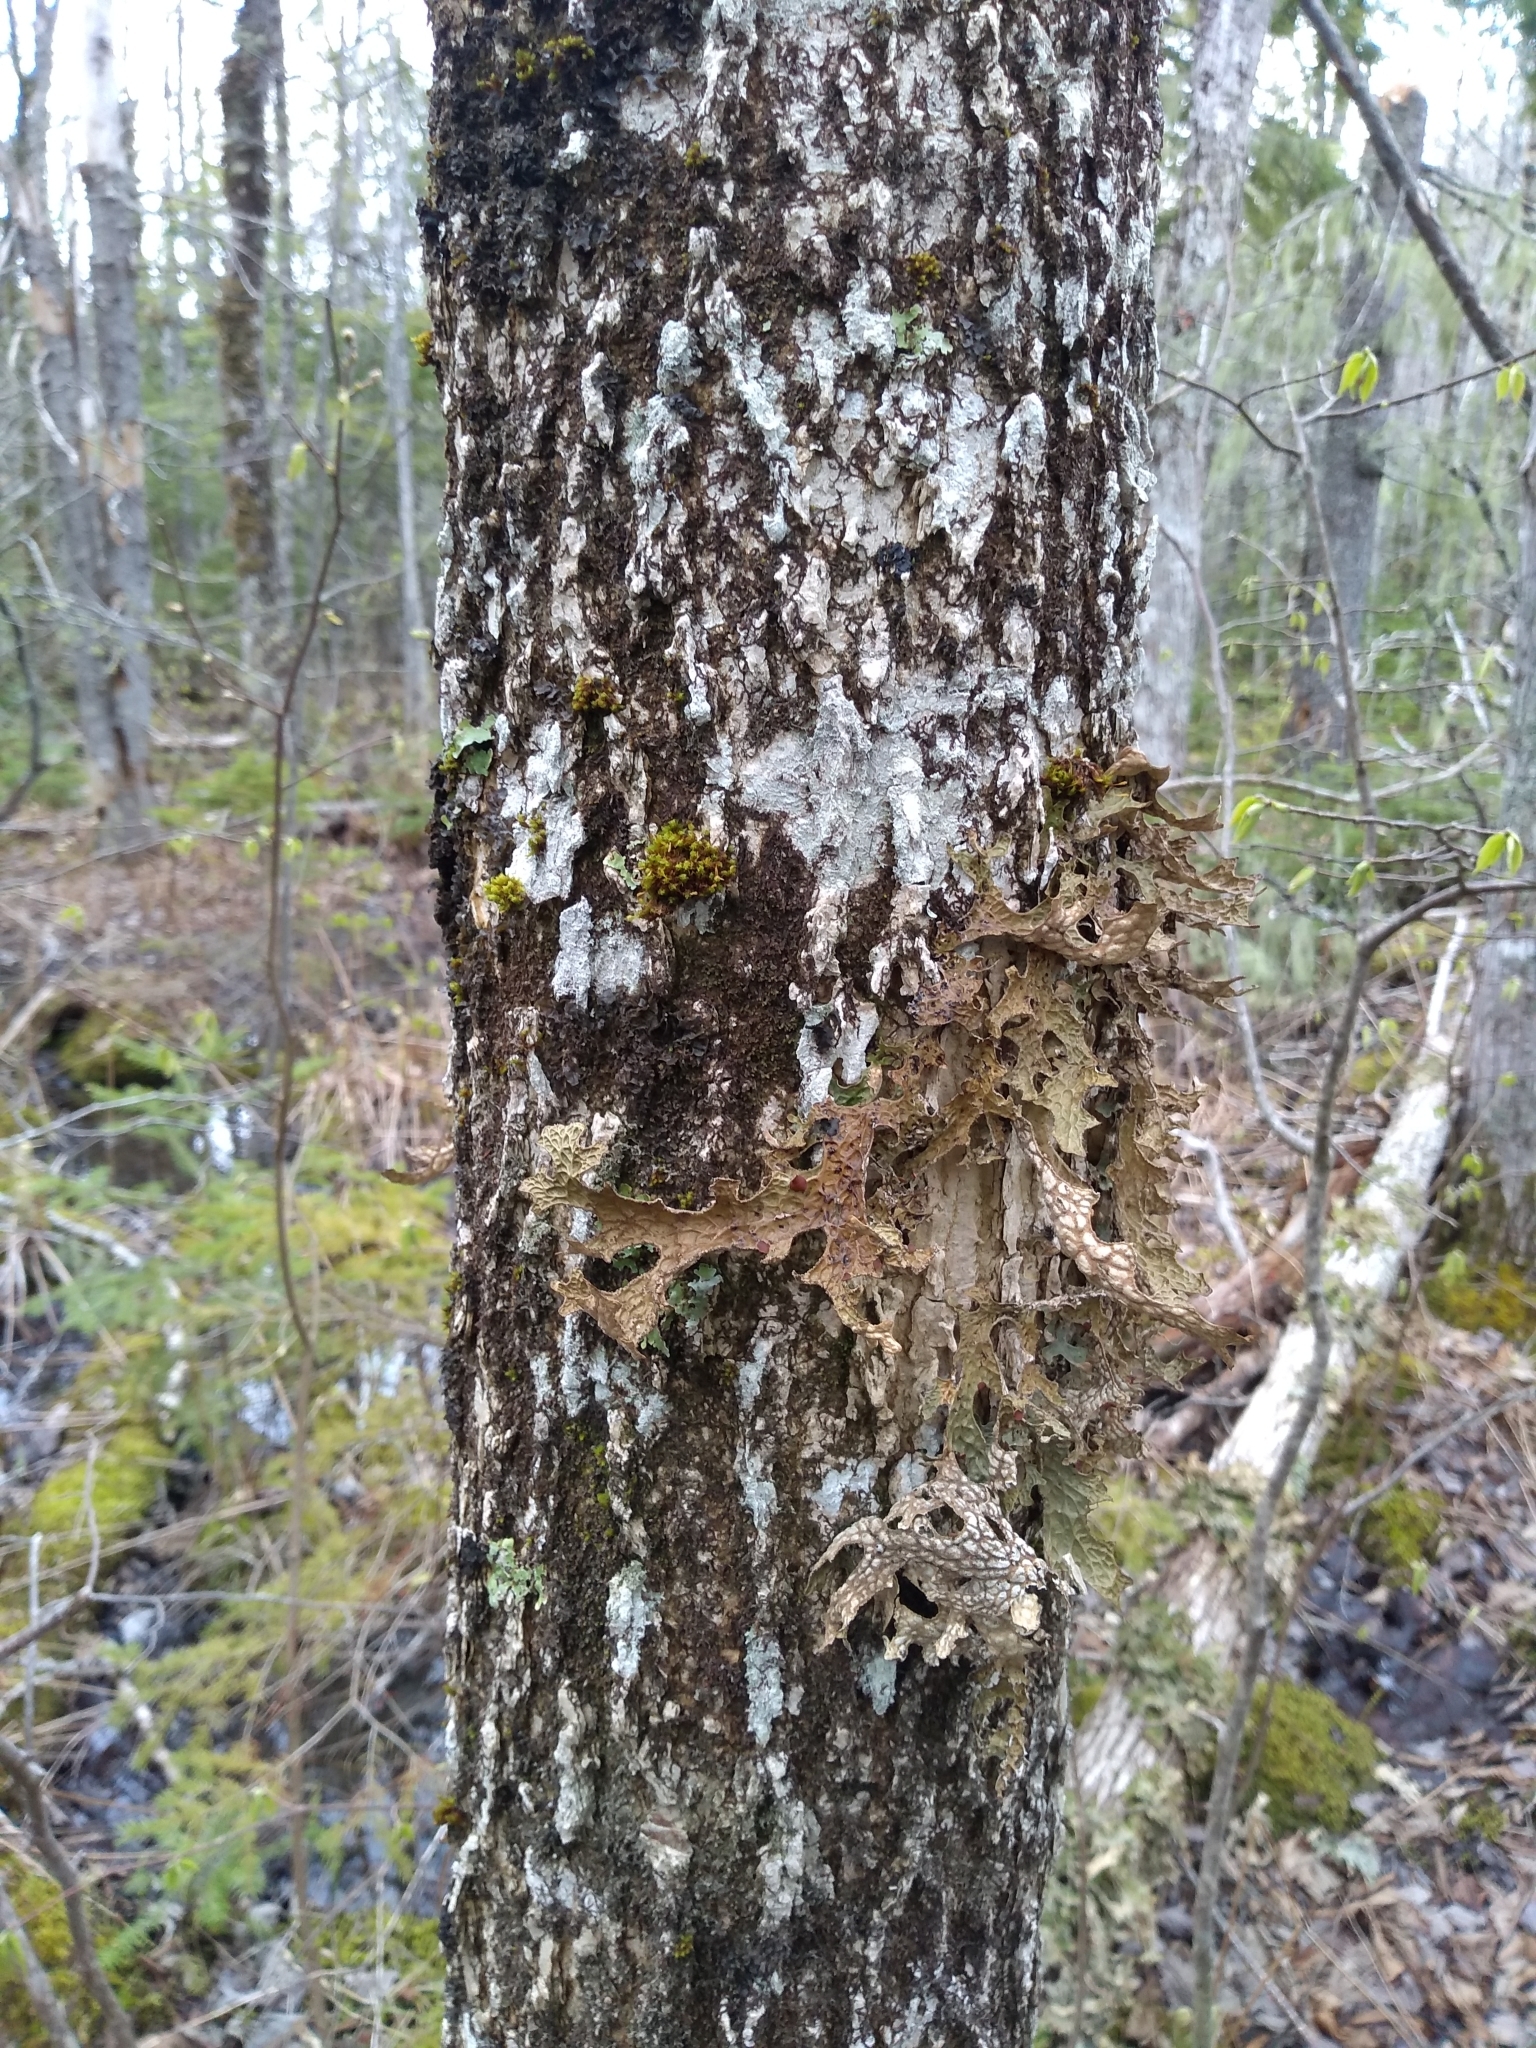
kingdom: Plantae
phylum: Tracheophyta
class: Magnoliopsida
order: Lamiales
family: Oleaceae
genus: Fraxinus
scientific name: Fraxinus nigra
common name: Black ash
